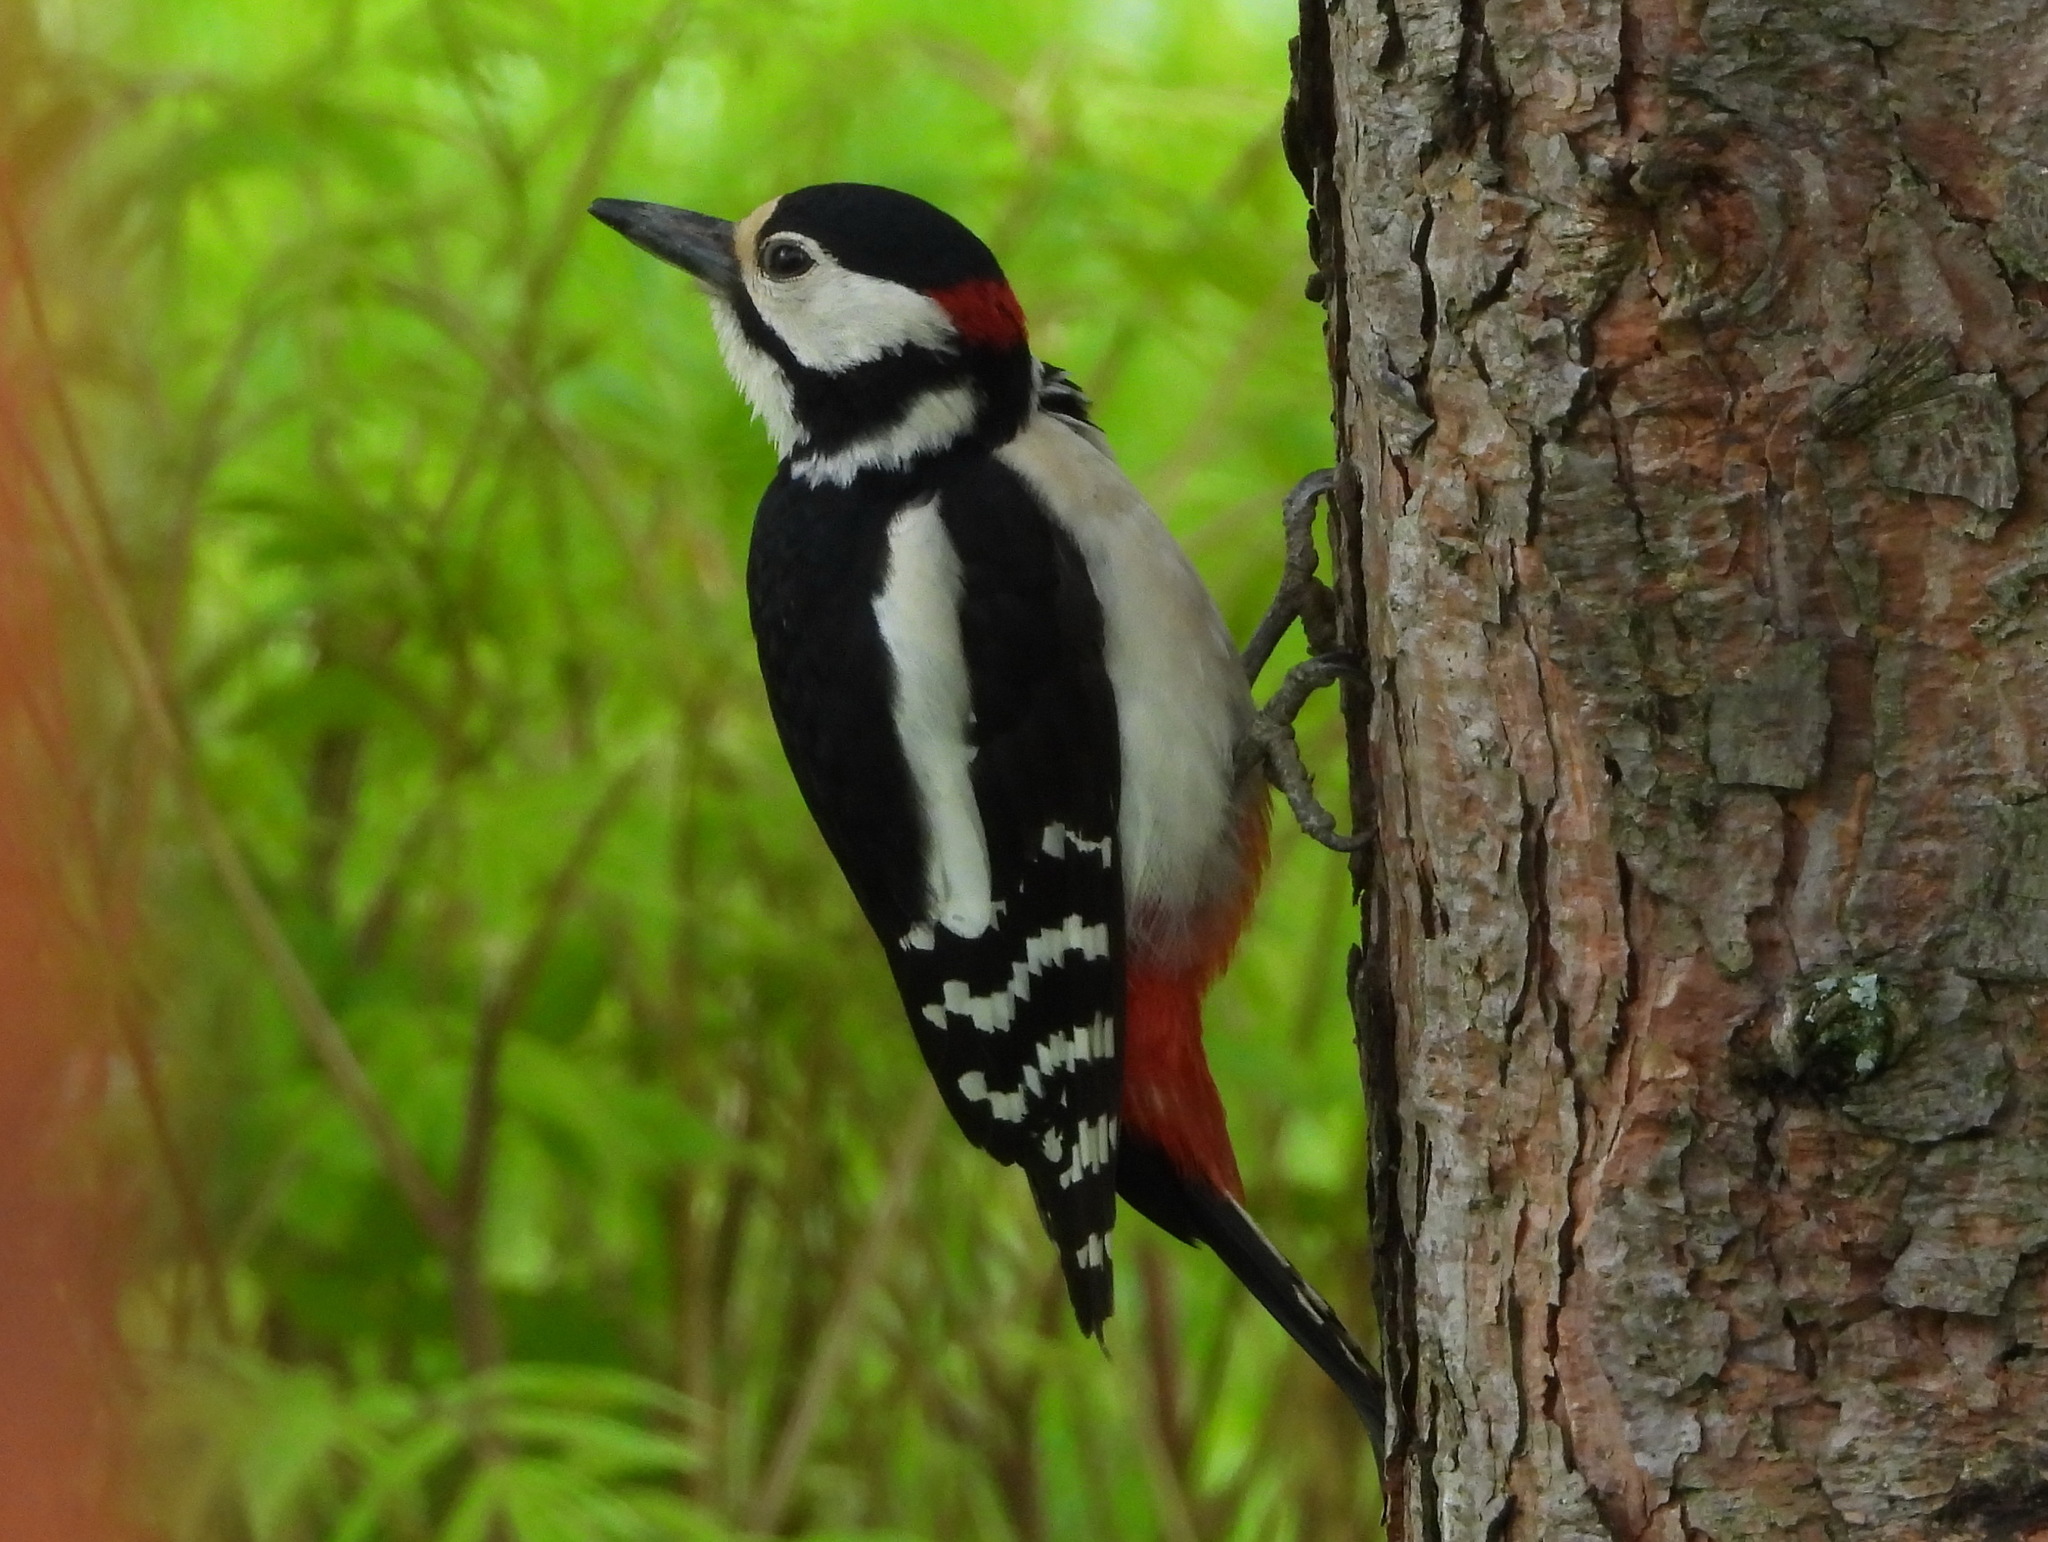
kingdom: Animalia
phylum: Chordata
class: Aves
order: Piciformes
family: Picidae
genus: Dendrocopos
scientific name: Dendrocopos major
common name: Great spotted woodpecker
